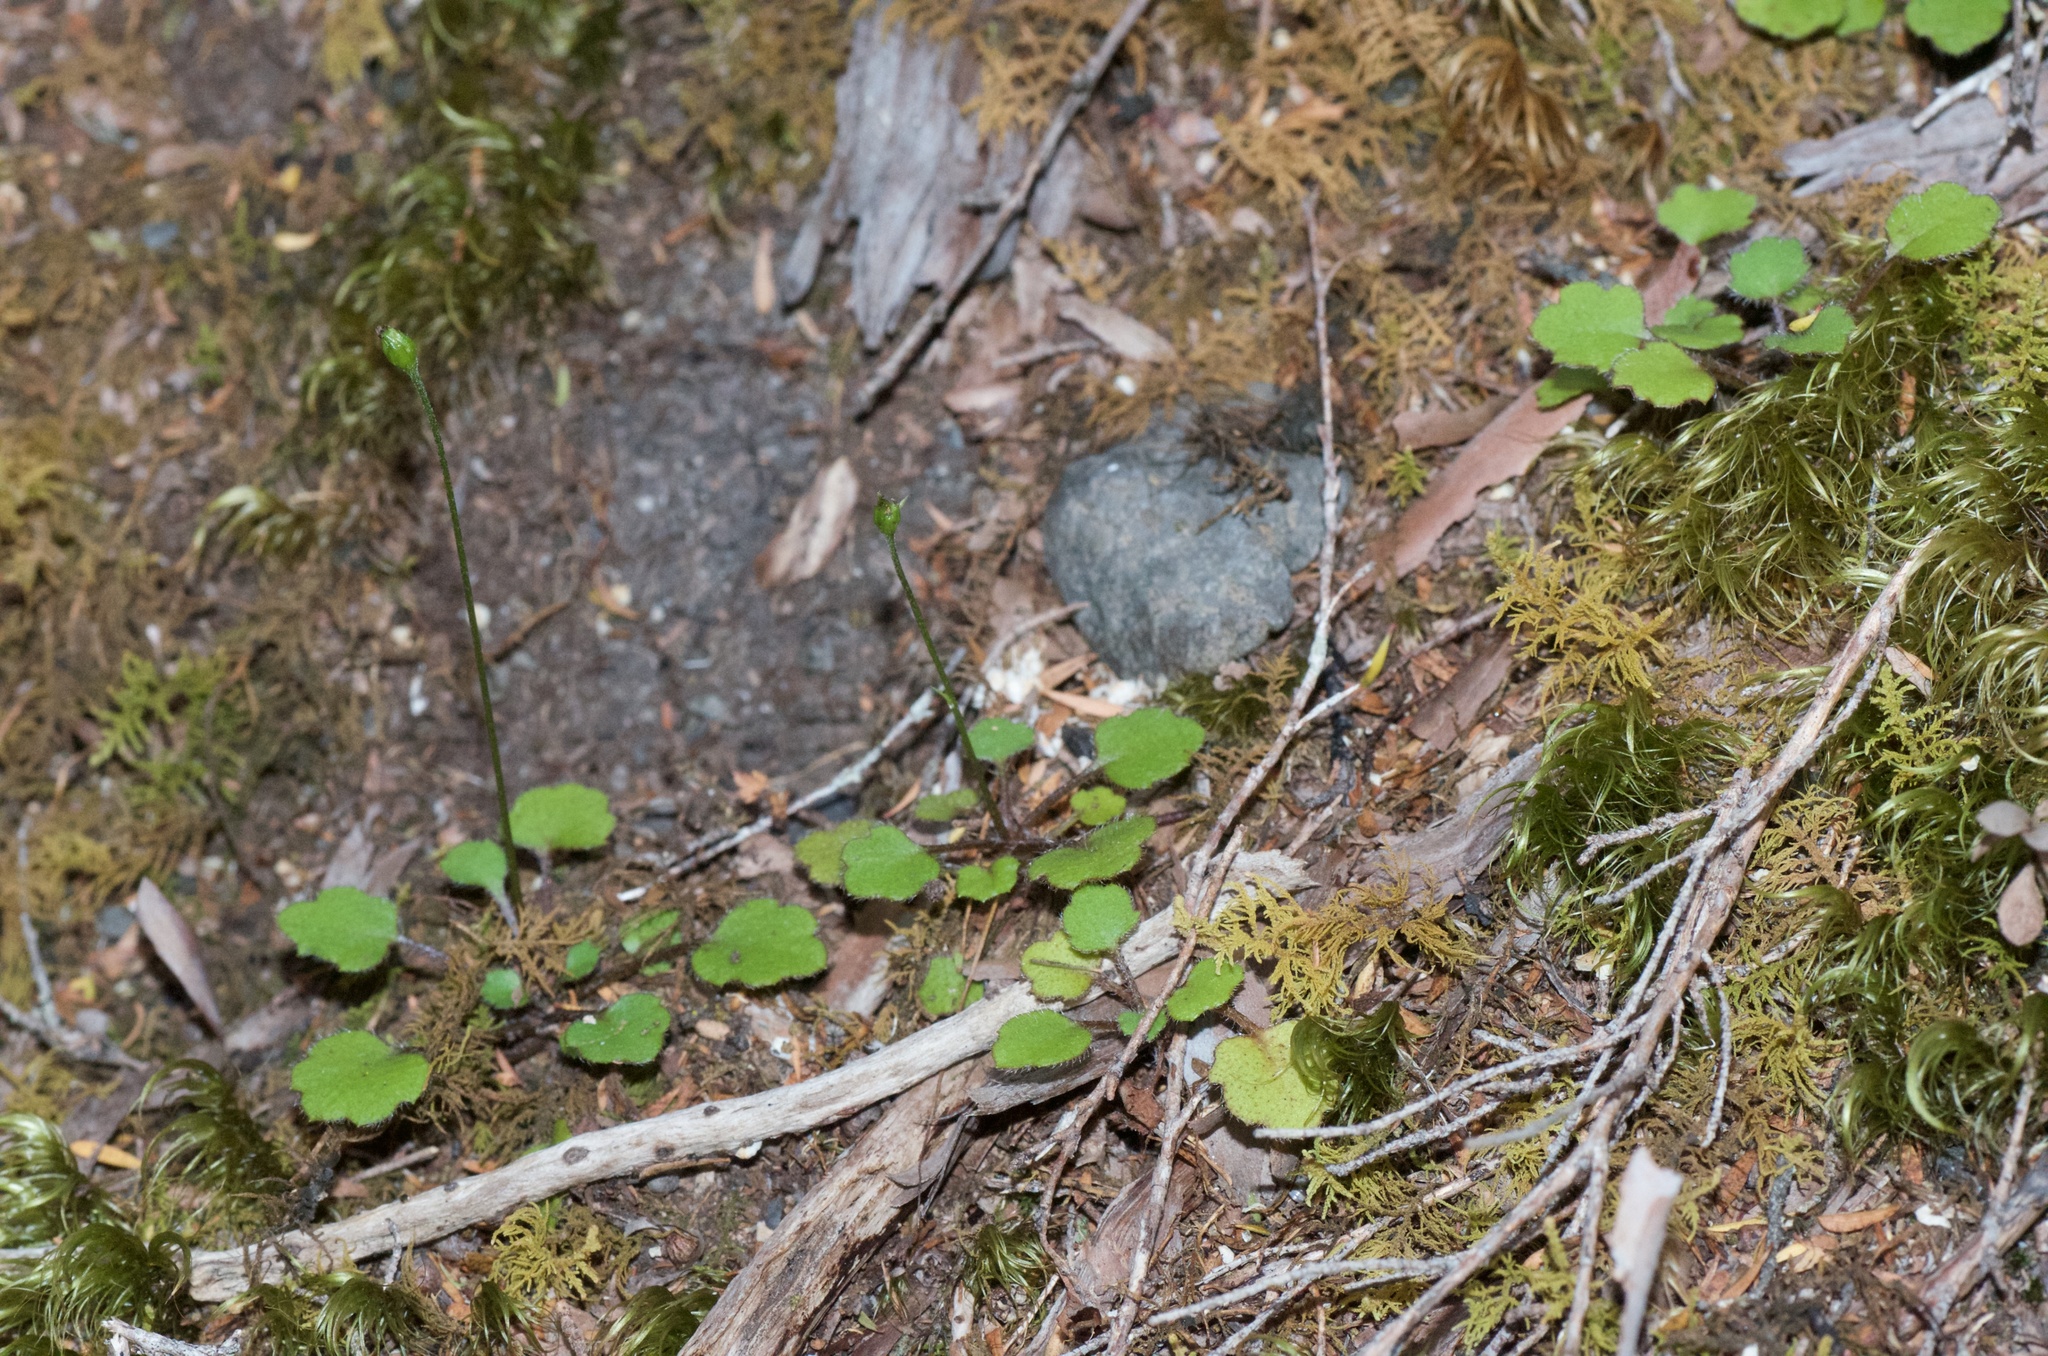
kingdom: Plantae
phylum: Tracheophyta
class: Magnoliopsida
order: Asterales
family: Asteraceae
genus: Lagenophora
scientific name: Lagenophora strangulata
